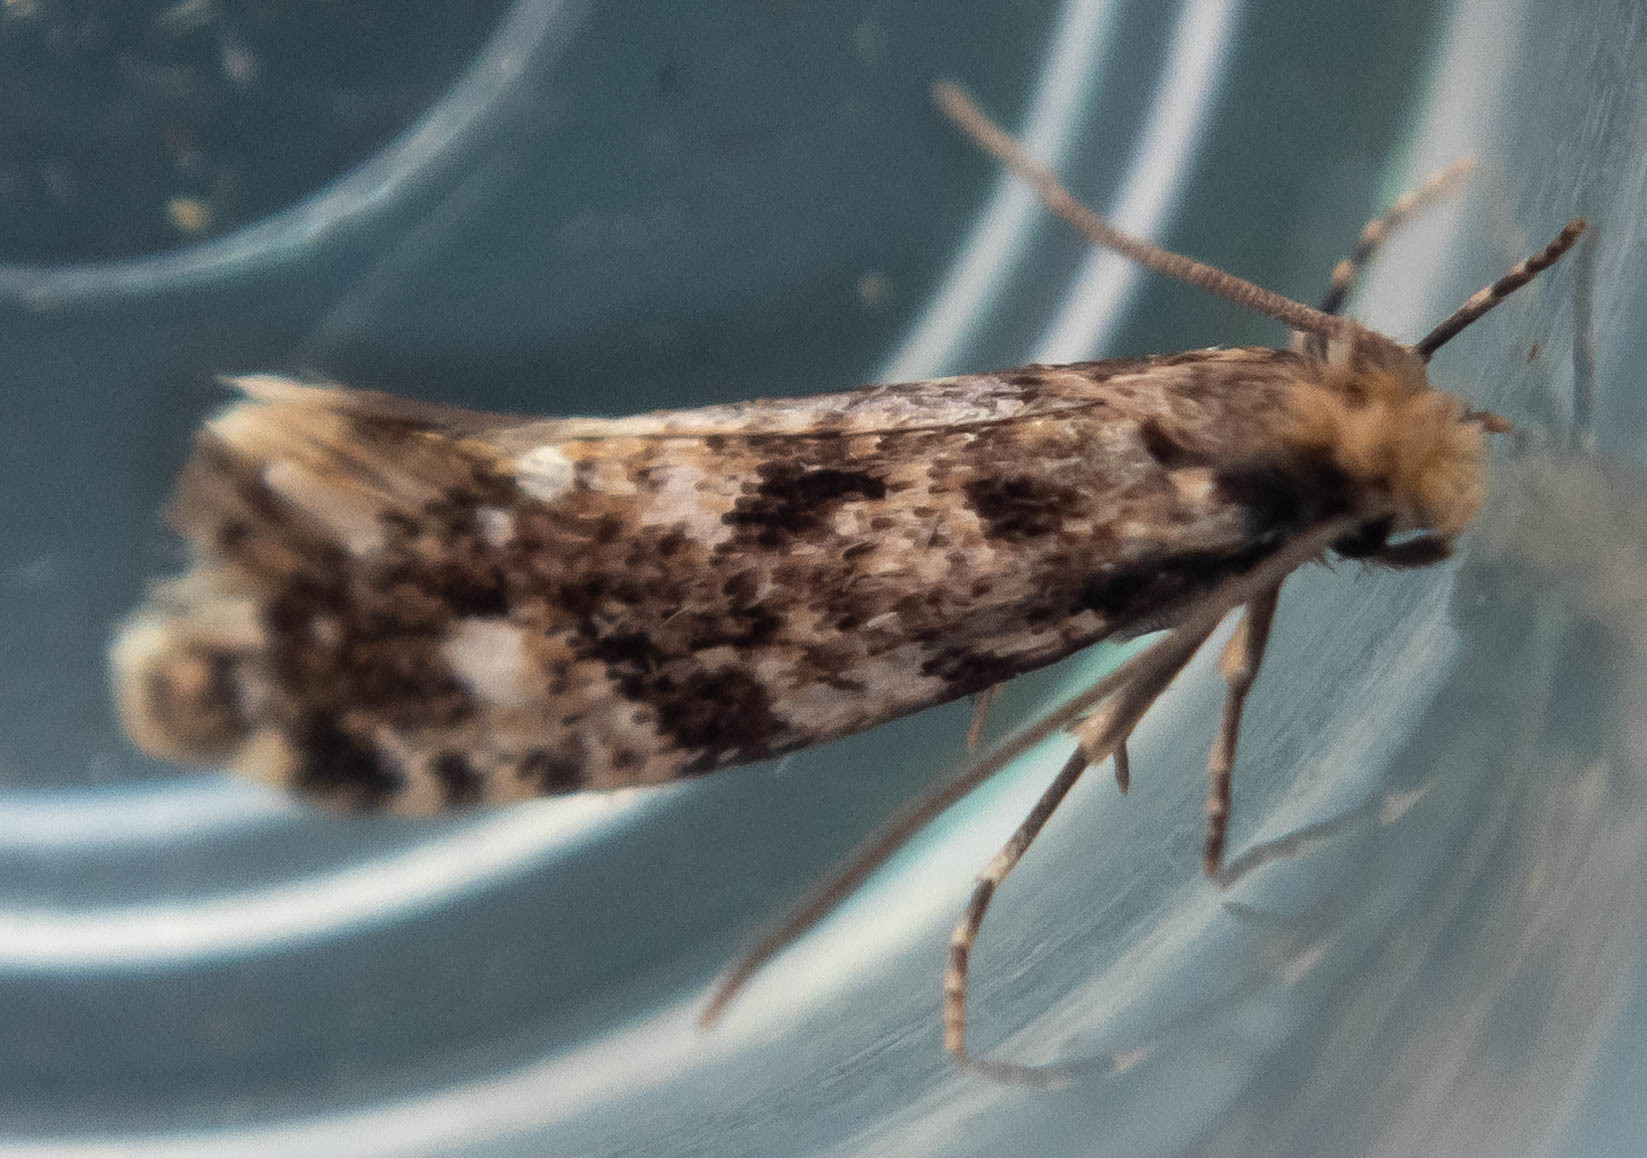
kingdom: Animalia
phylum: Arthropoda
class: Insecta
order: Lepidoptera
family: Tineidae
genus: Nemapogon
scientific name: Nemapogon cloacella
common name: Cork moth
